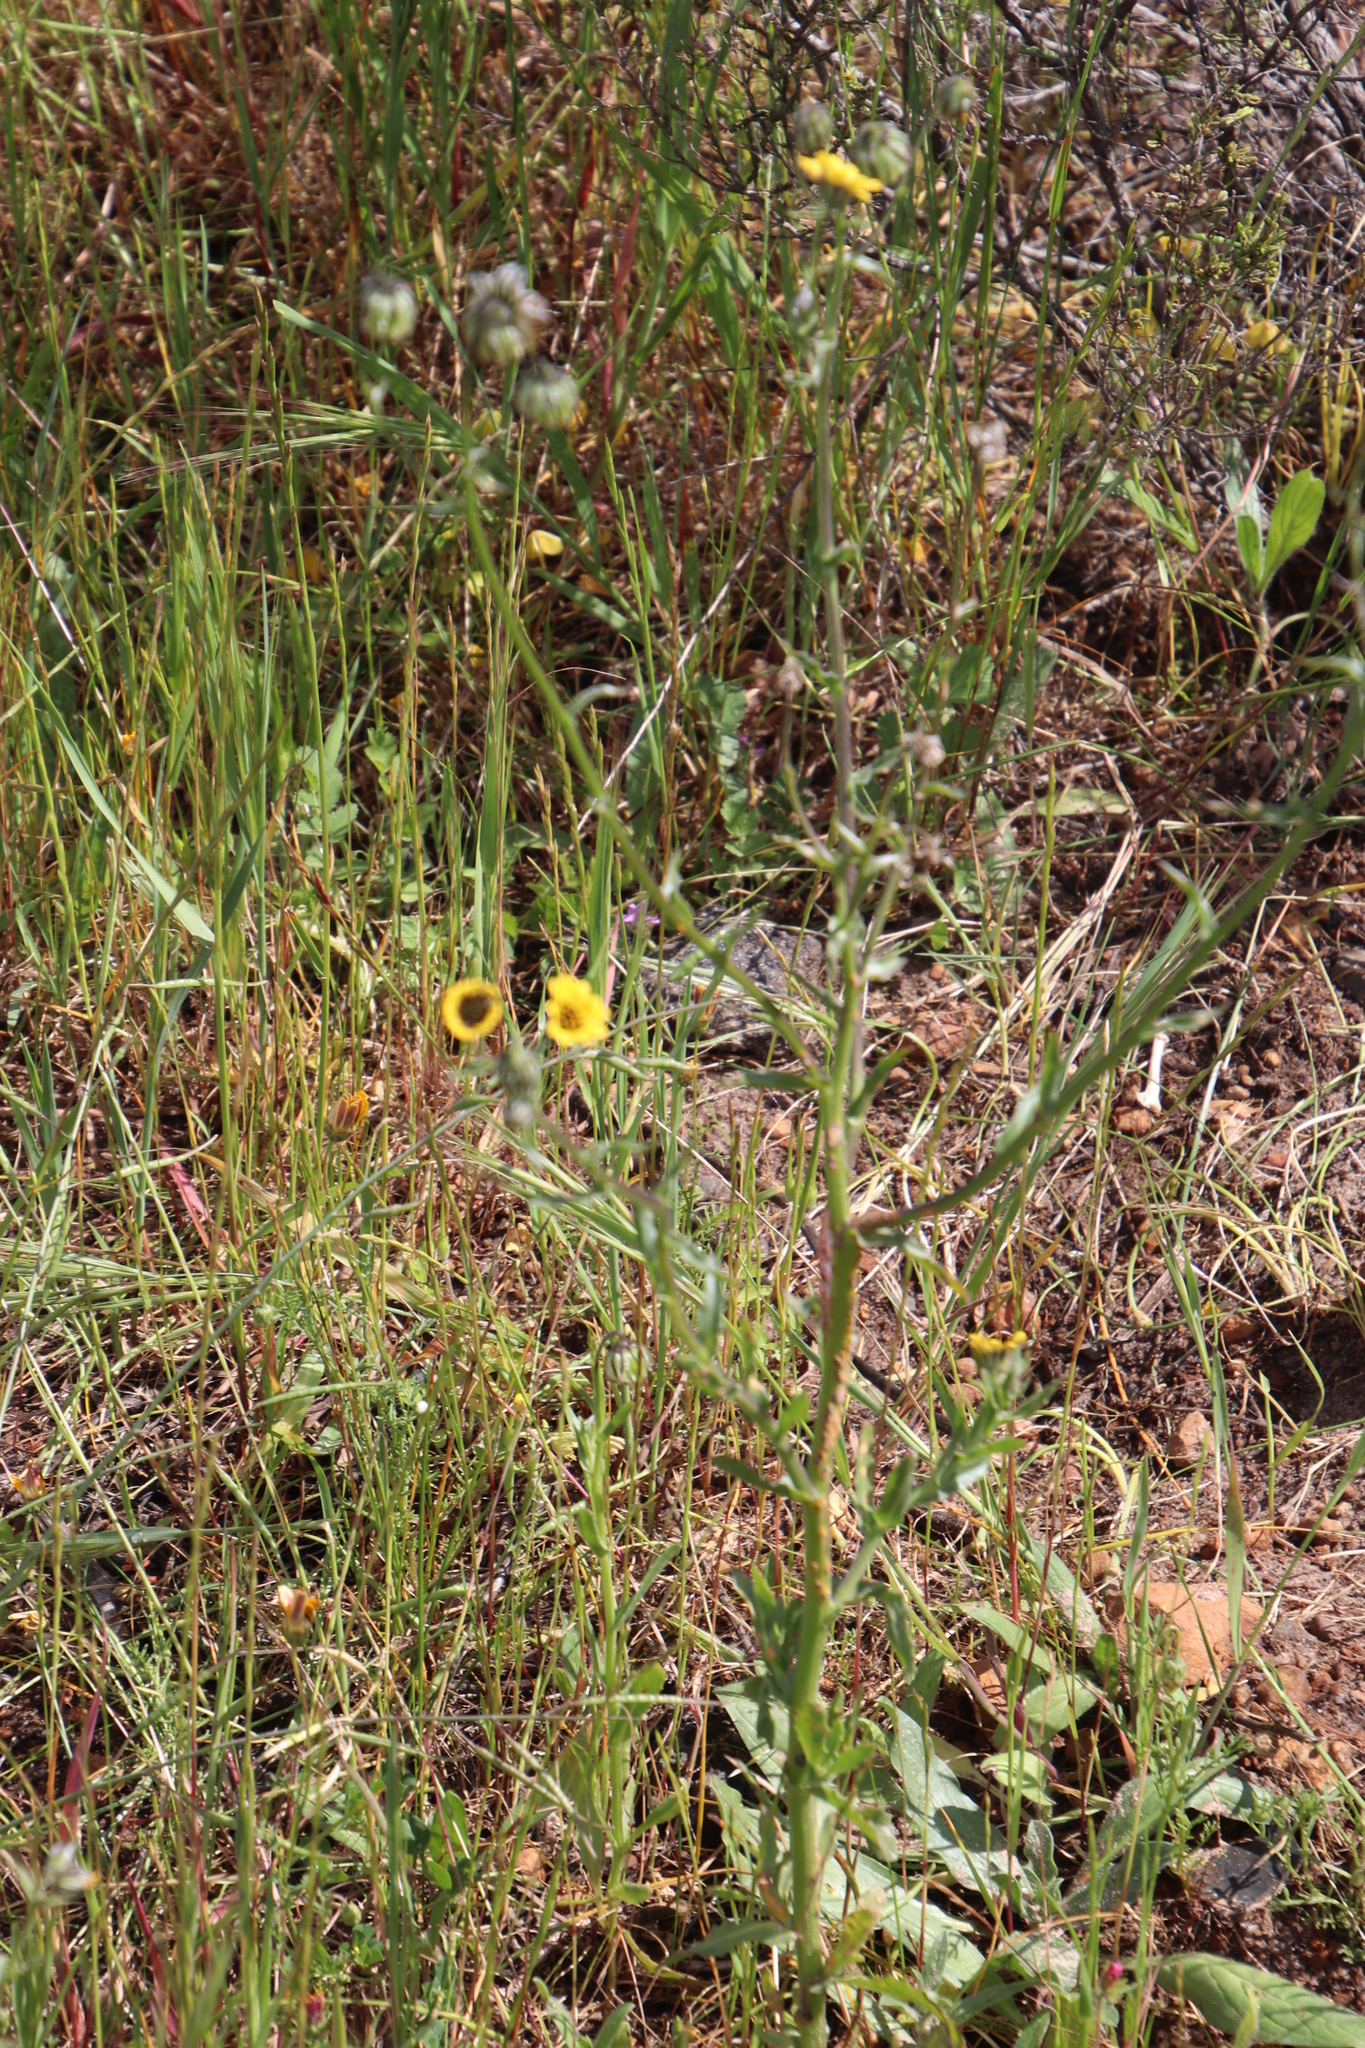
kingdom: Plantae
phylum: Tracheophyta
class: Magnoliopsida
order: Asterales
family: Asteraceae
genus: Osteospermum
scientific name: Osteospermum monstrosum
